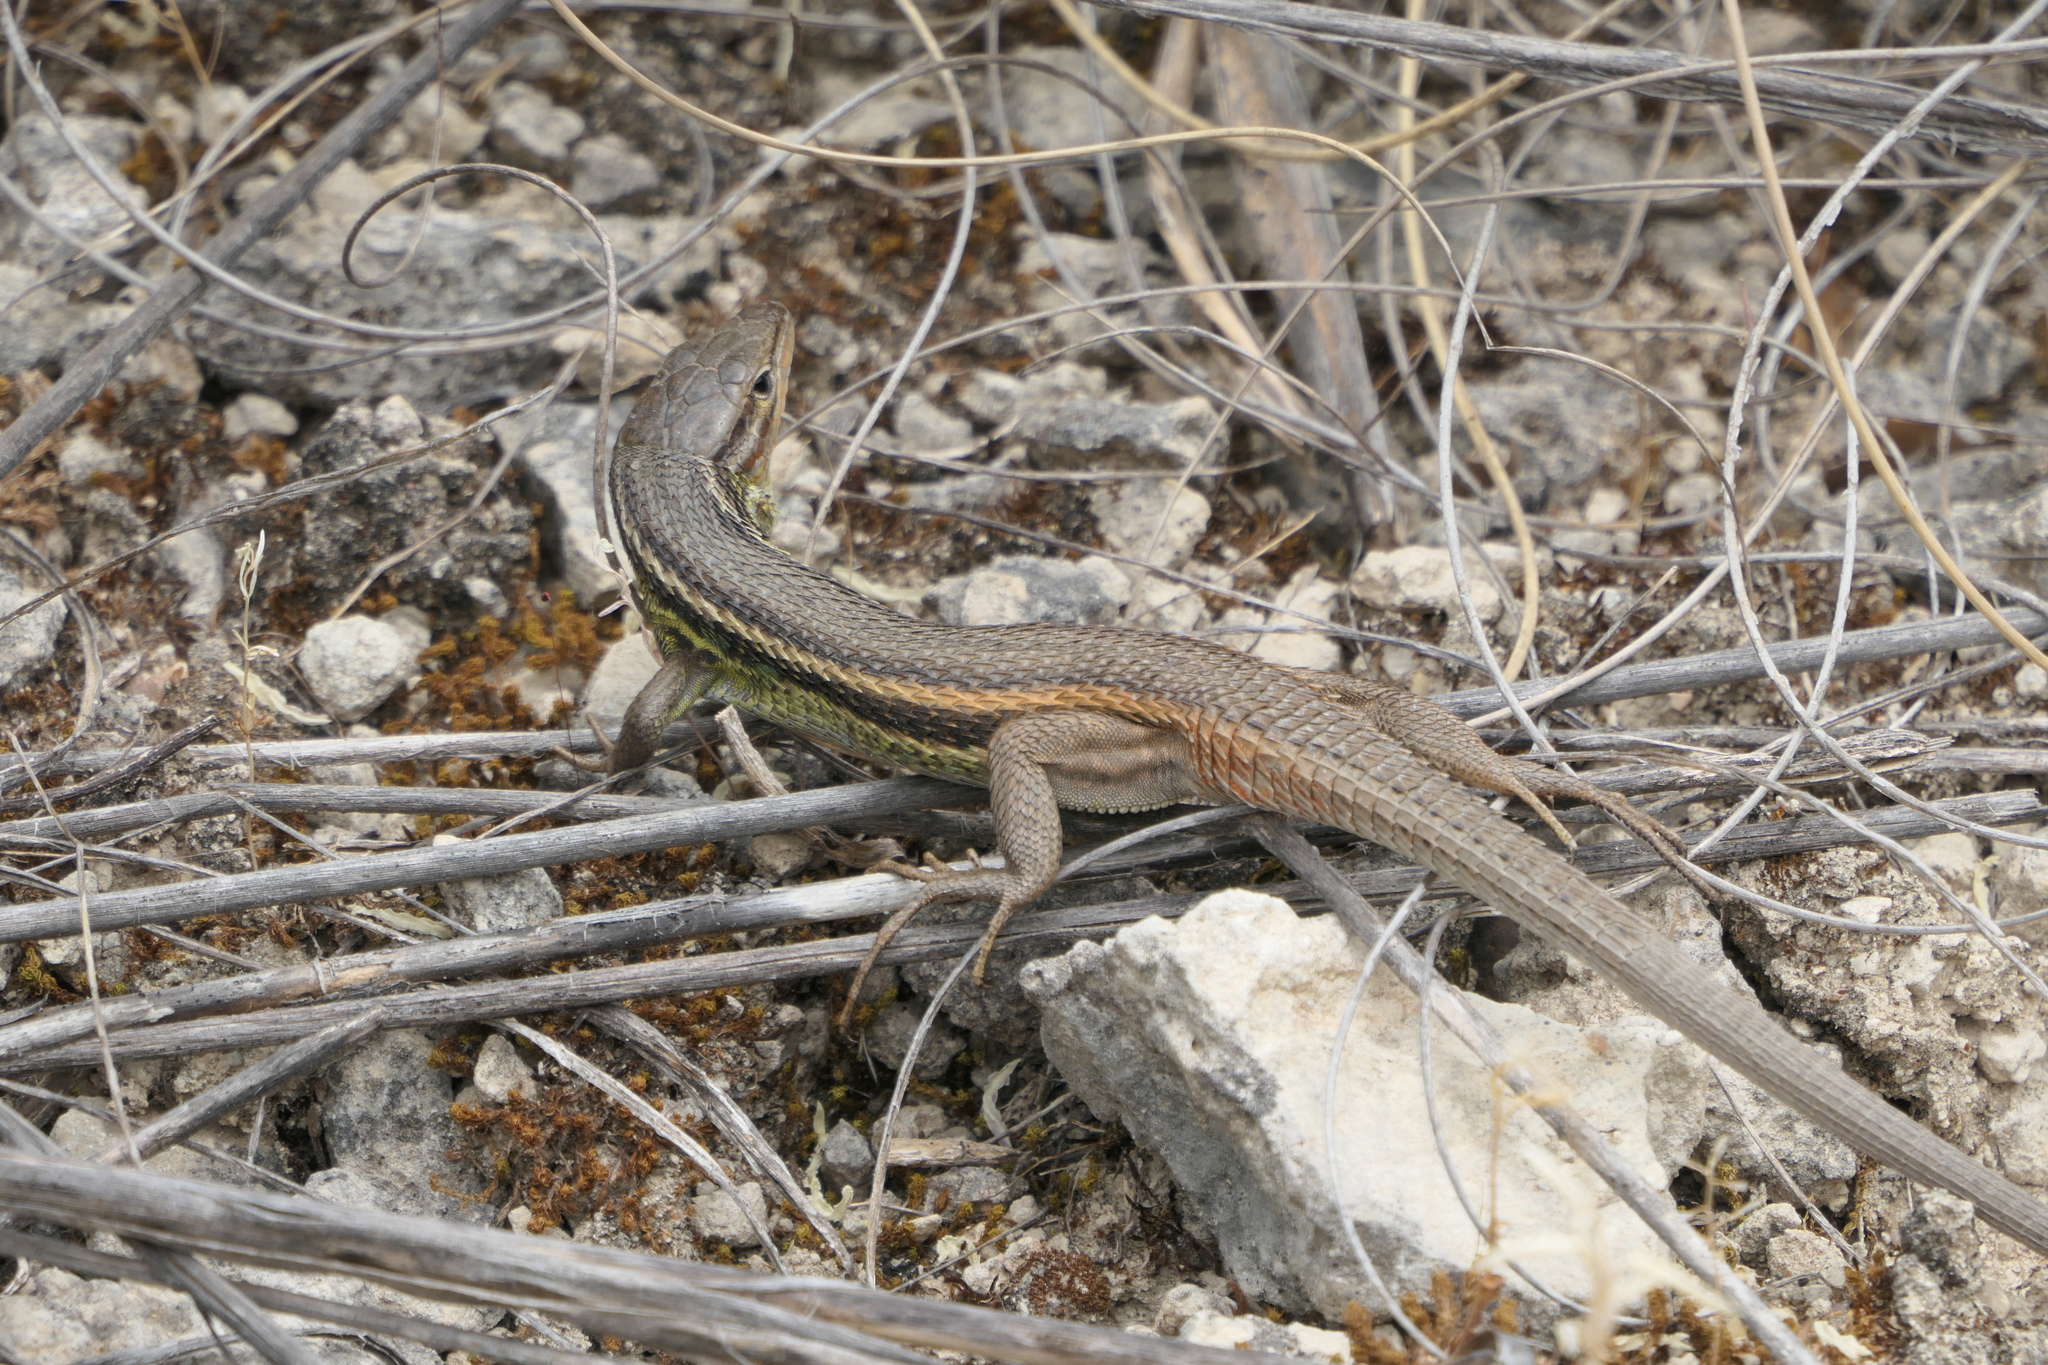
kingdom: Animalia
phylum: Chordata
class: Squamata
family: Lacertidae
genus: Psammodromus
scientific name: Psammodromus algirus
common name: Algerian psammodromus
